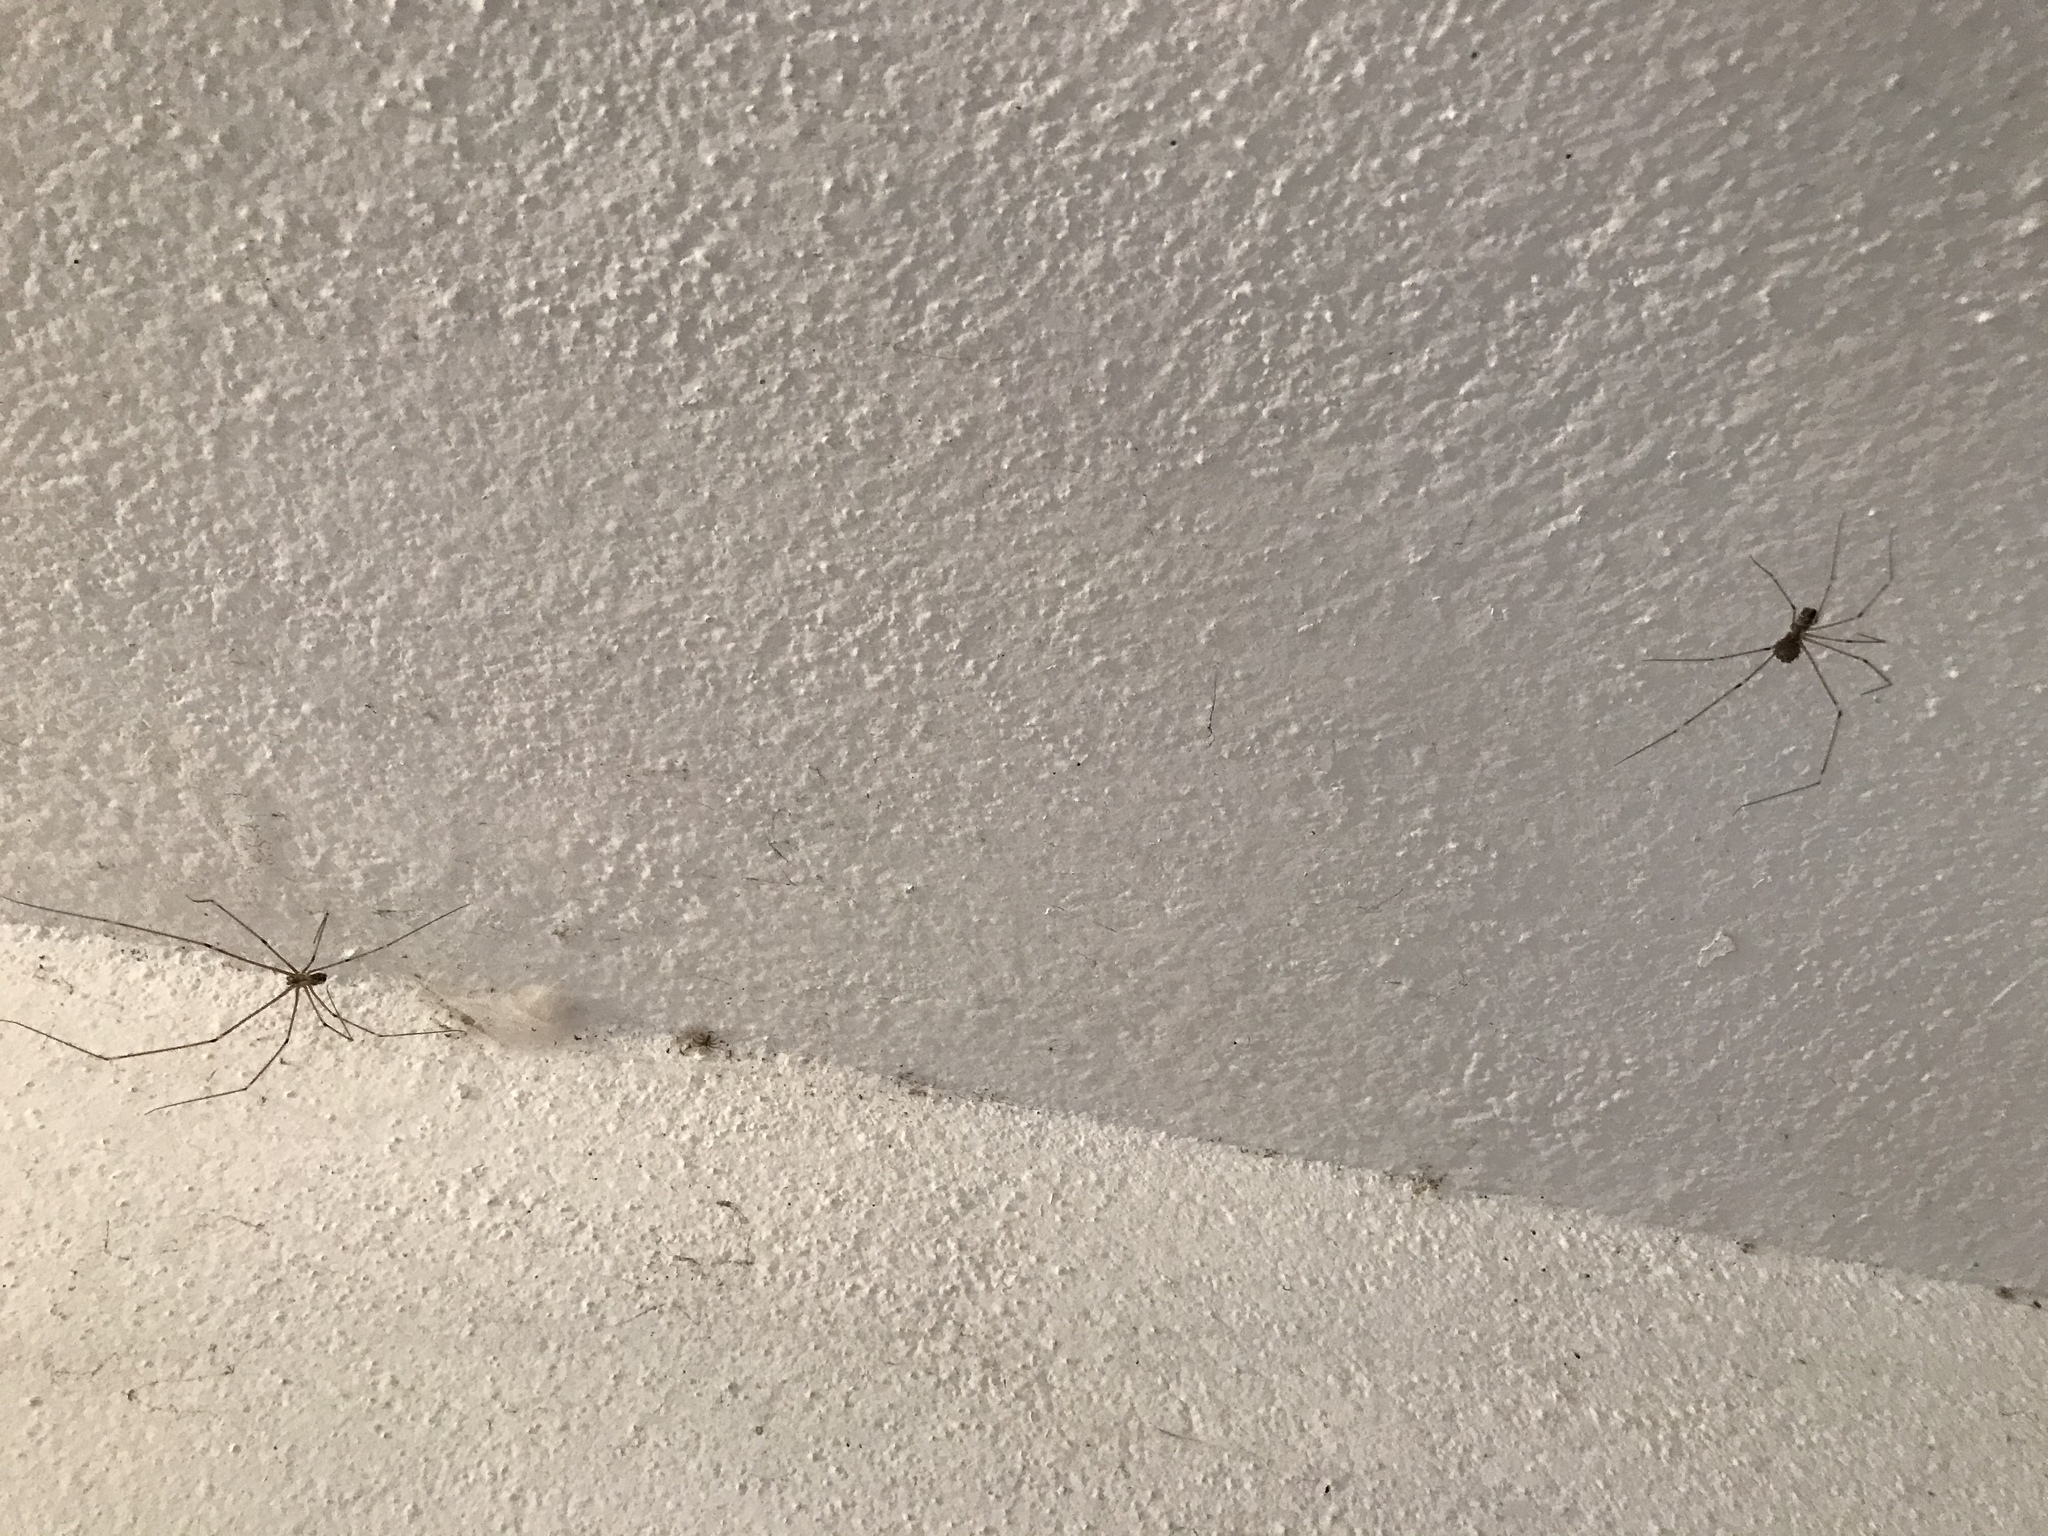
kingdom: Animalia
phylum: Arthropoda
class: Arachnida
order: Araneae
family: Pholcidae
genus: Pholcus
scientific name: Pholcus phalangioides
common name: Longbodied cellar spider
